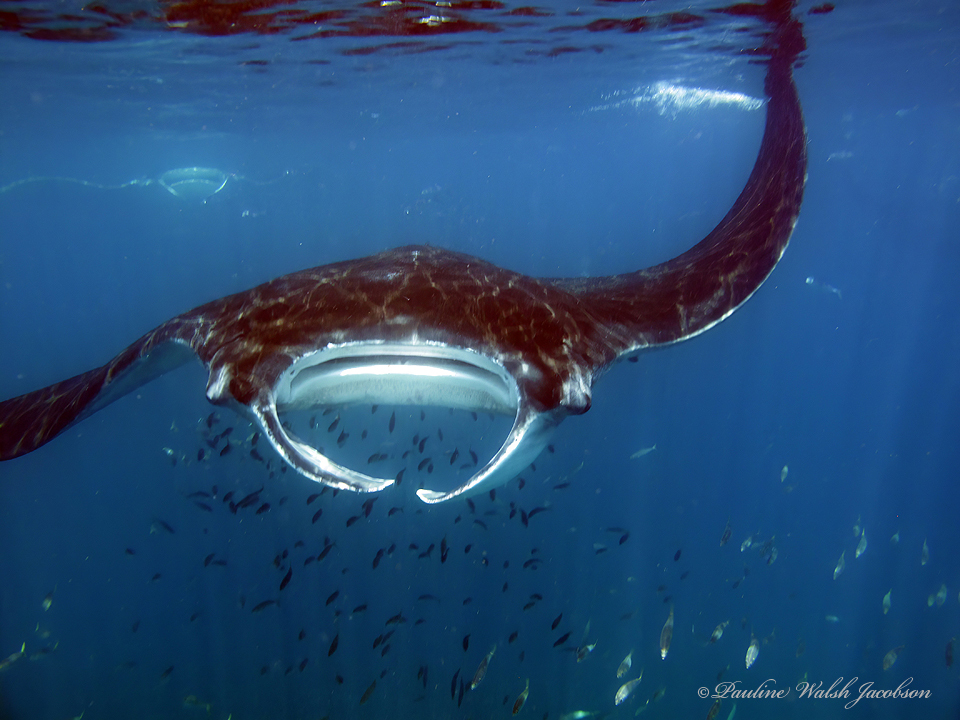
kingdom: Animalia
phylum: Chordata
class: Elasmobranchii
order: Myliobatiformes
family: Myliobatidae
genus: Mobula
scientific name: Mobula birostris
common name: Manta ray
